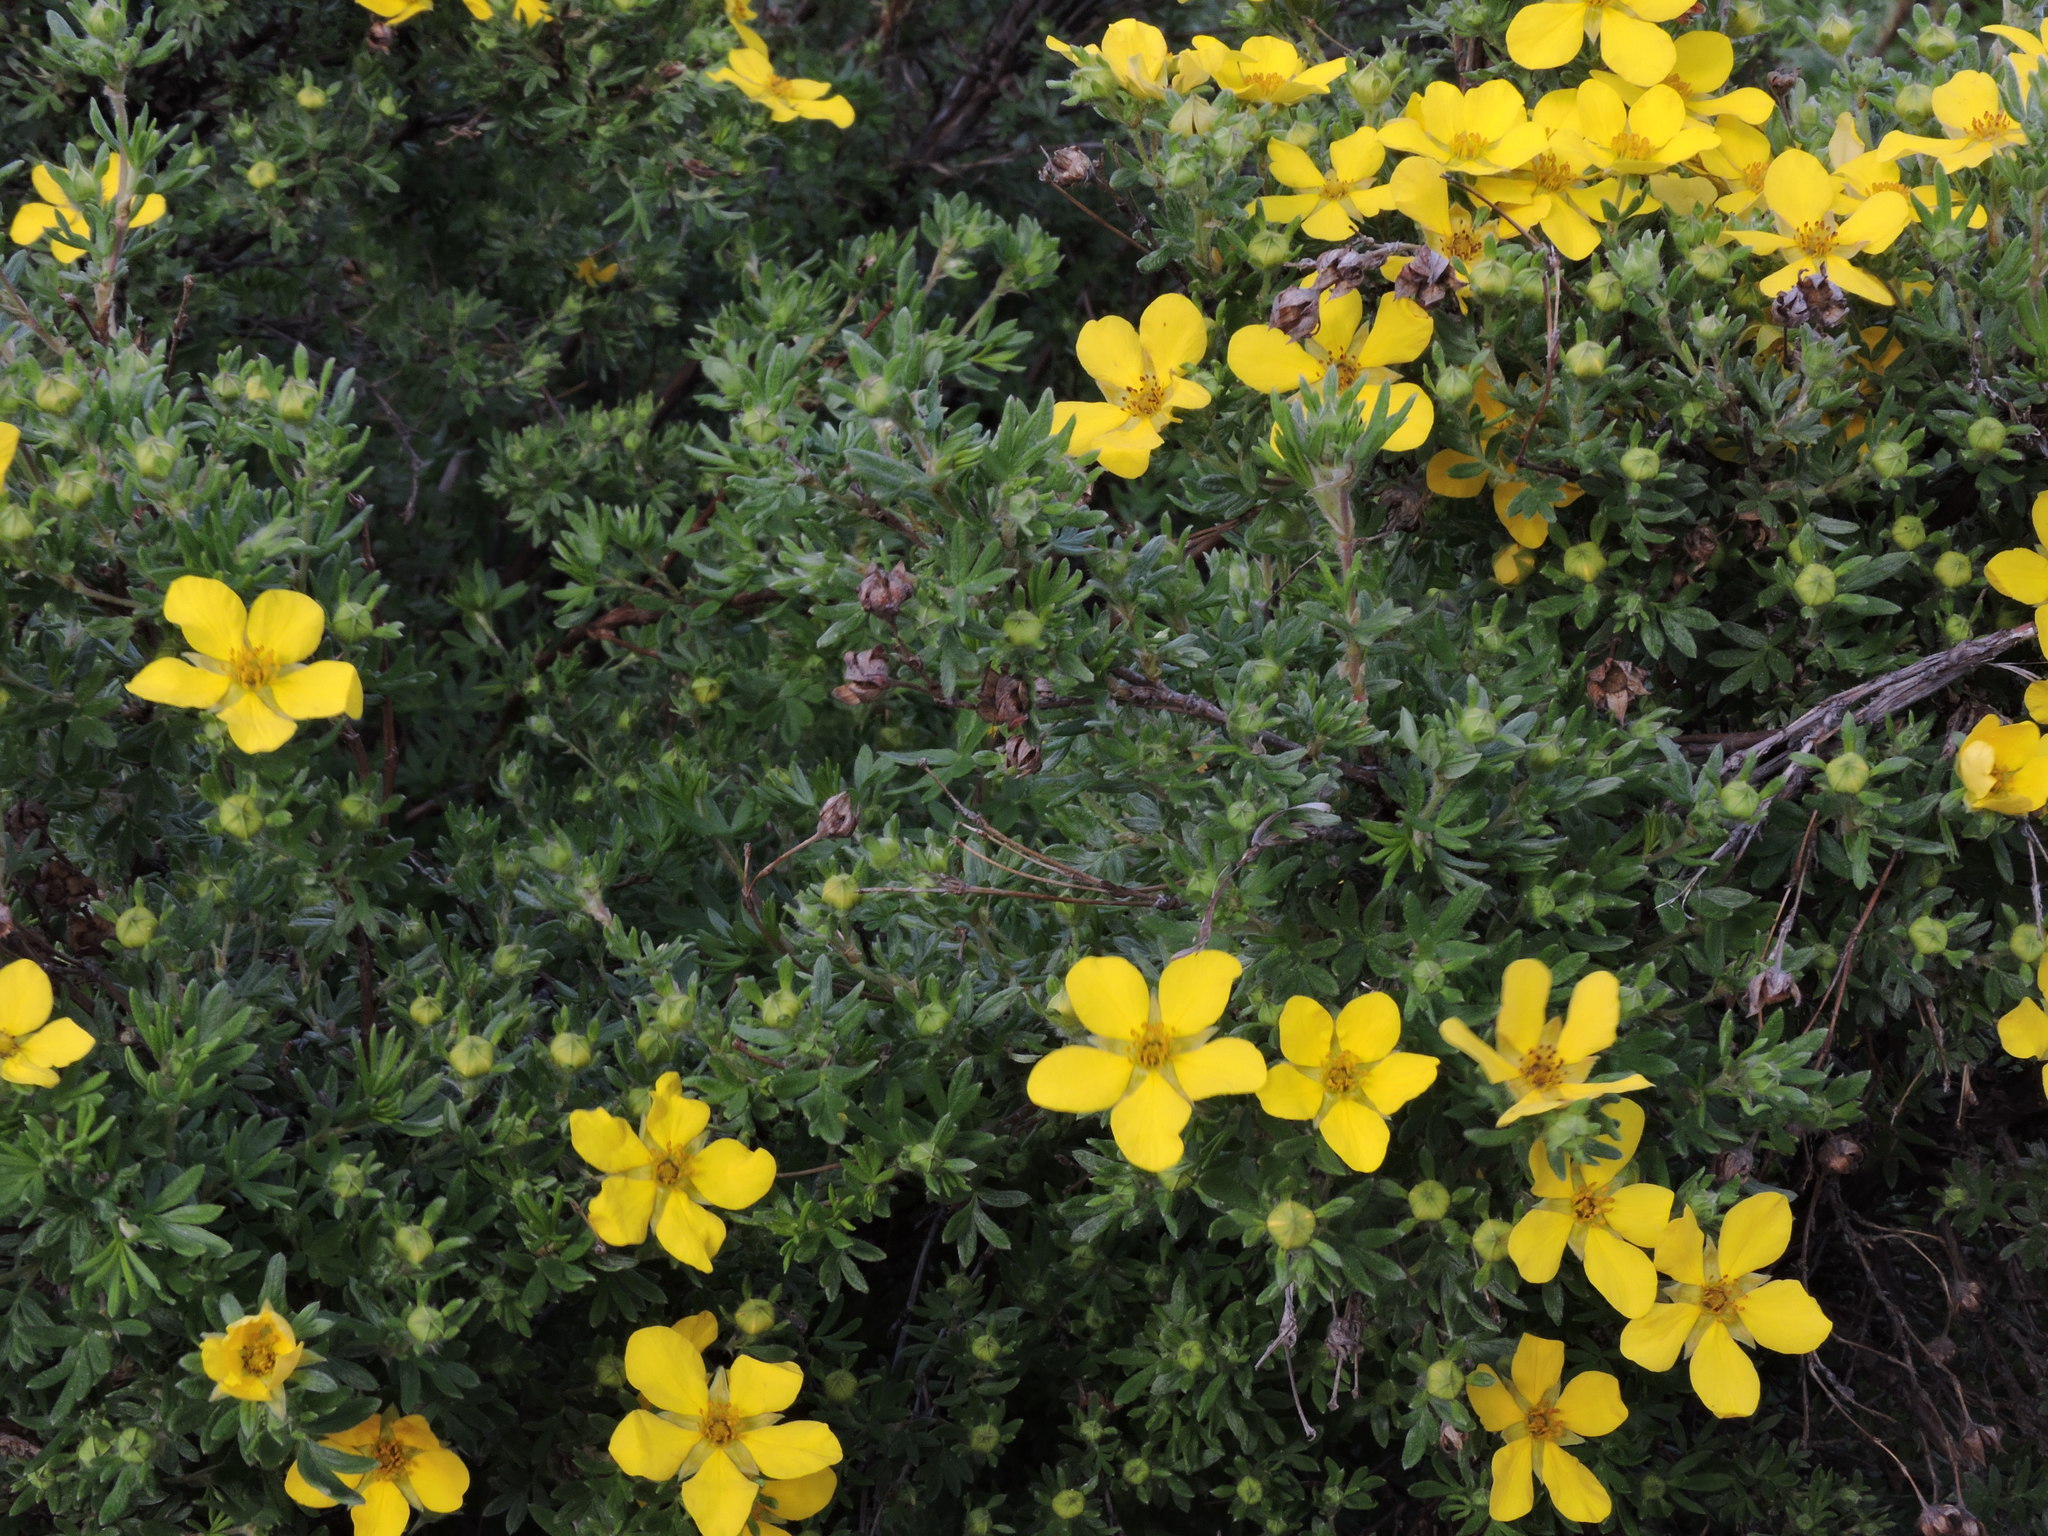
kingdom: Plantae
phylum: Tracheophyta
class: Magnoliopsida
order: Rosales
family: Rosaceae
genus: Dasiphora
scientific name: Dasiphora fruticosa
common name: Shrubby cinquefoil
